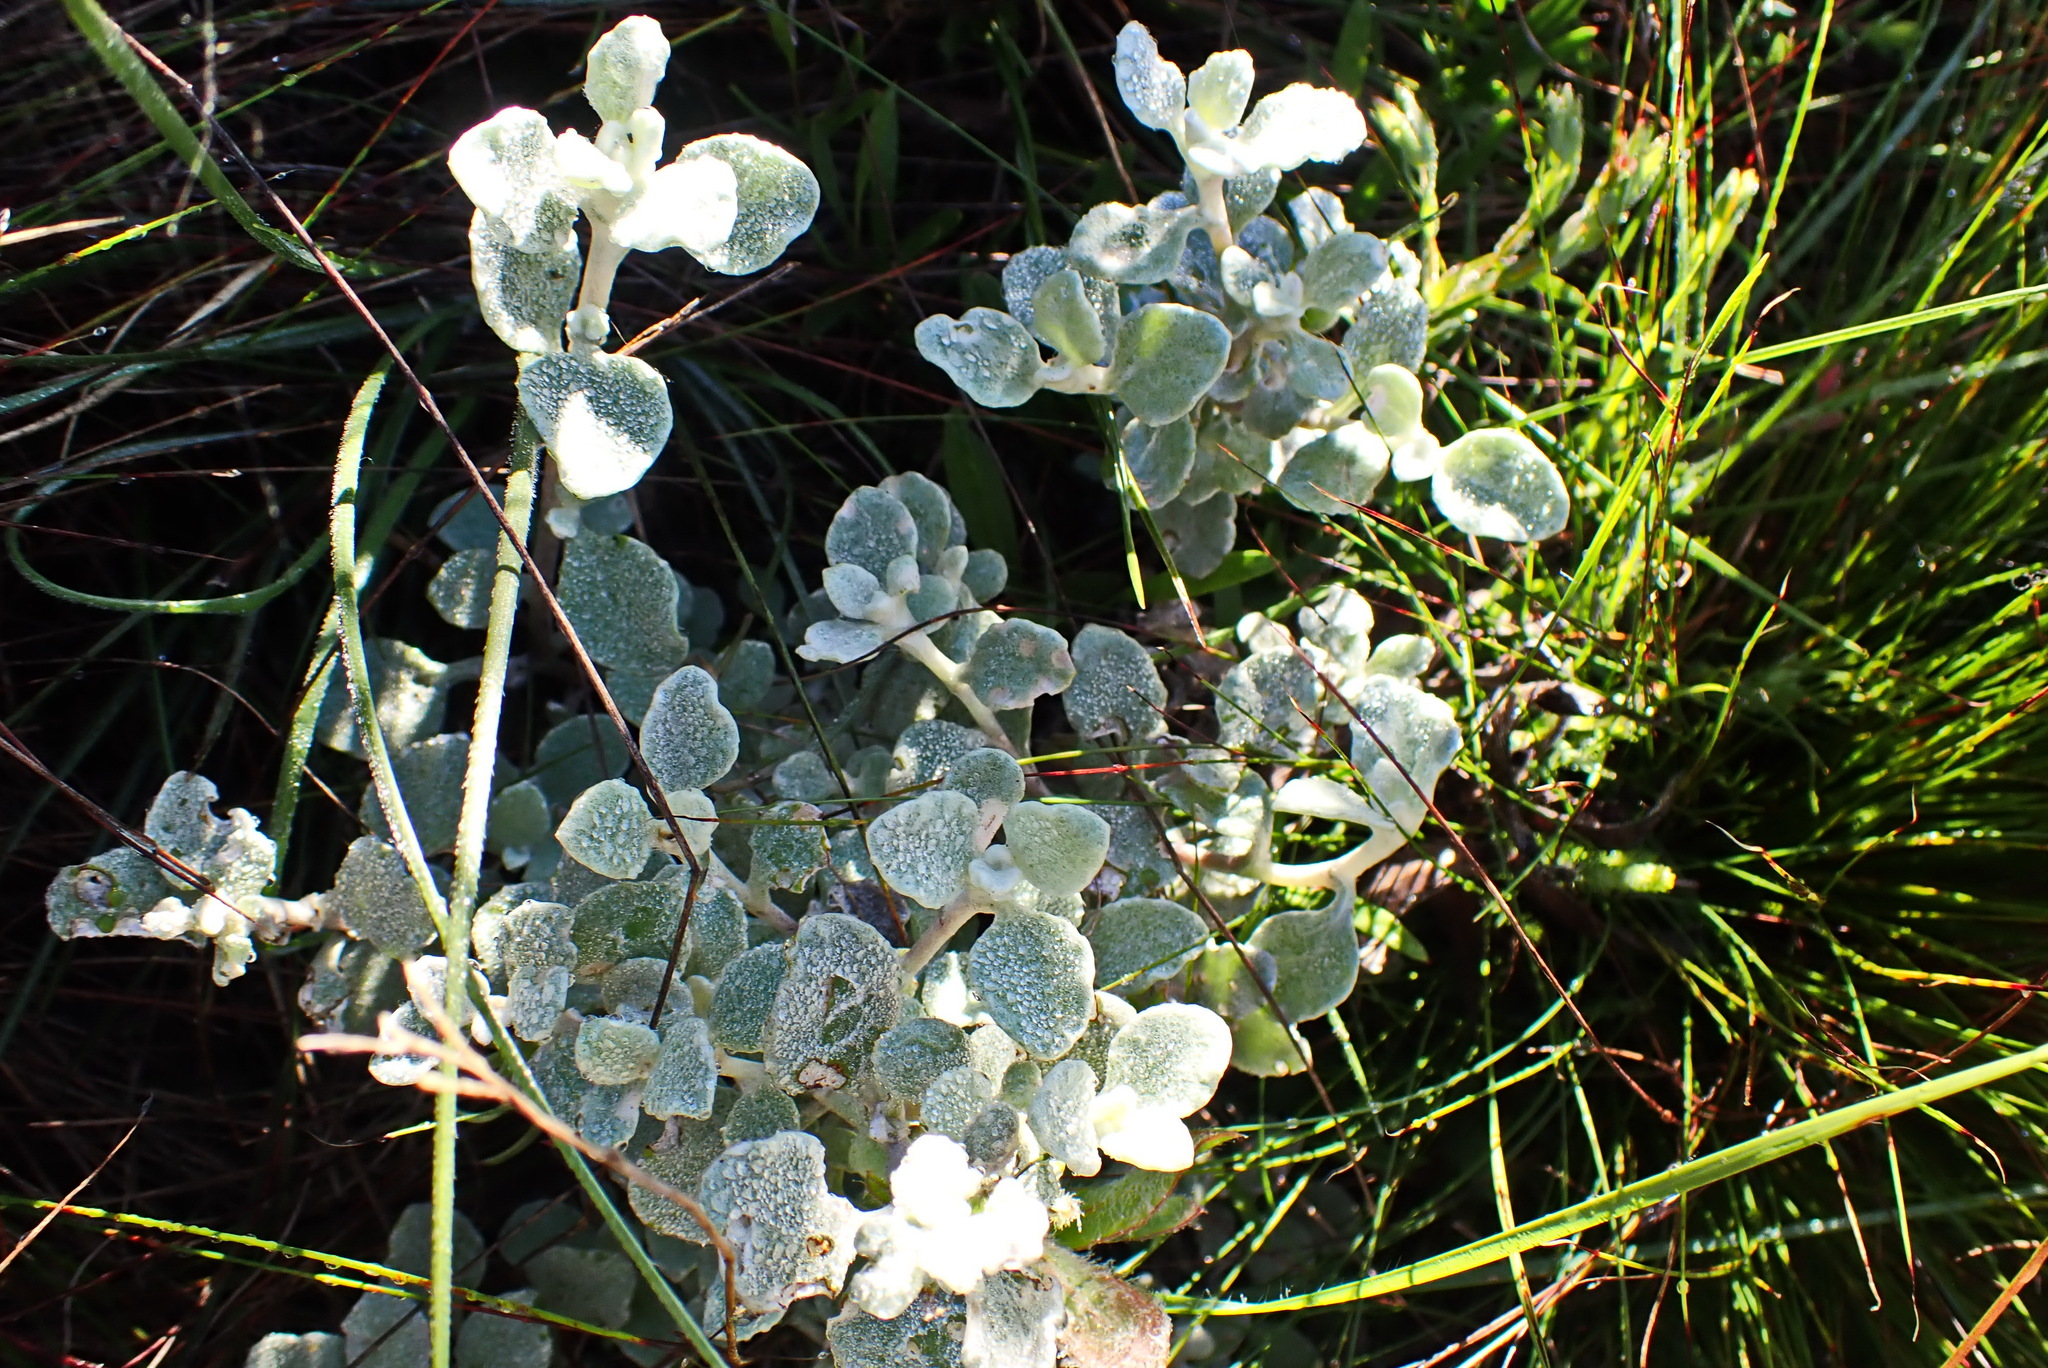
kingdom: Plantae
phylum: Tracheophyta
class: Magnoliopsida
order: Asterales
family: Asteraceae
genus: Helichrysum
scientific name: Helichrysum petiolare
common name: Licorice-plant
